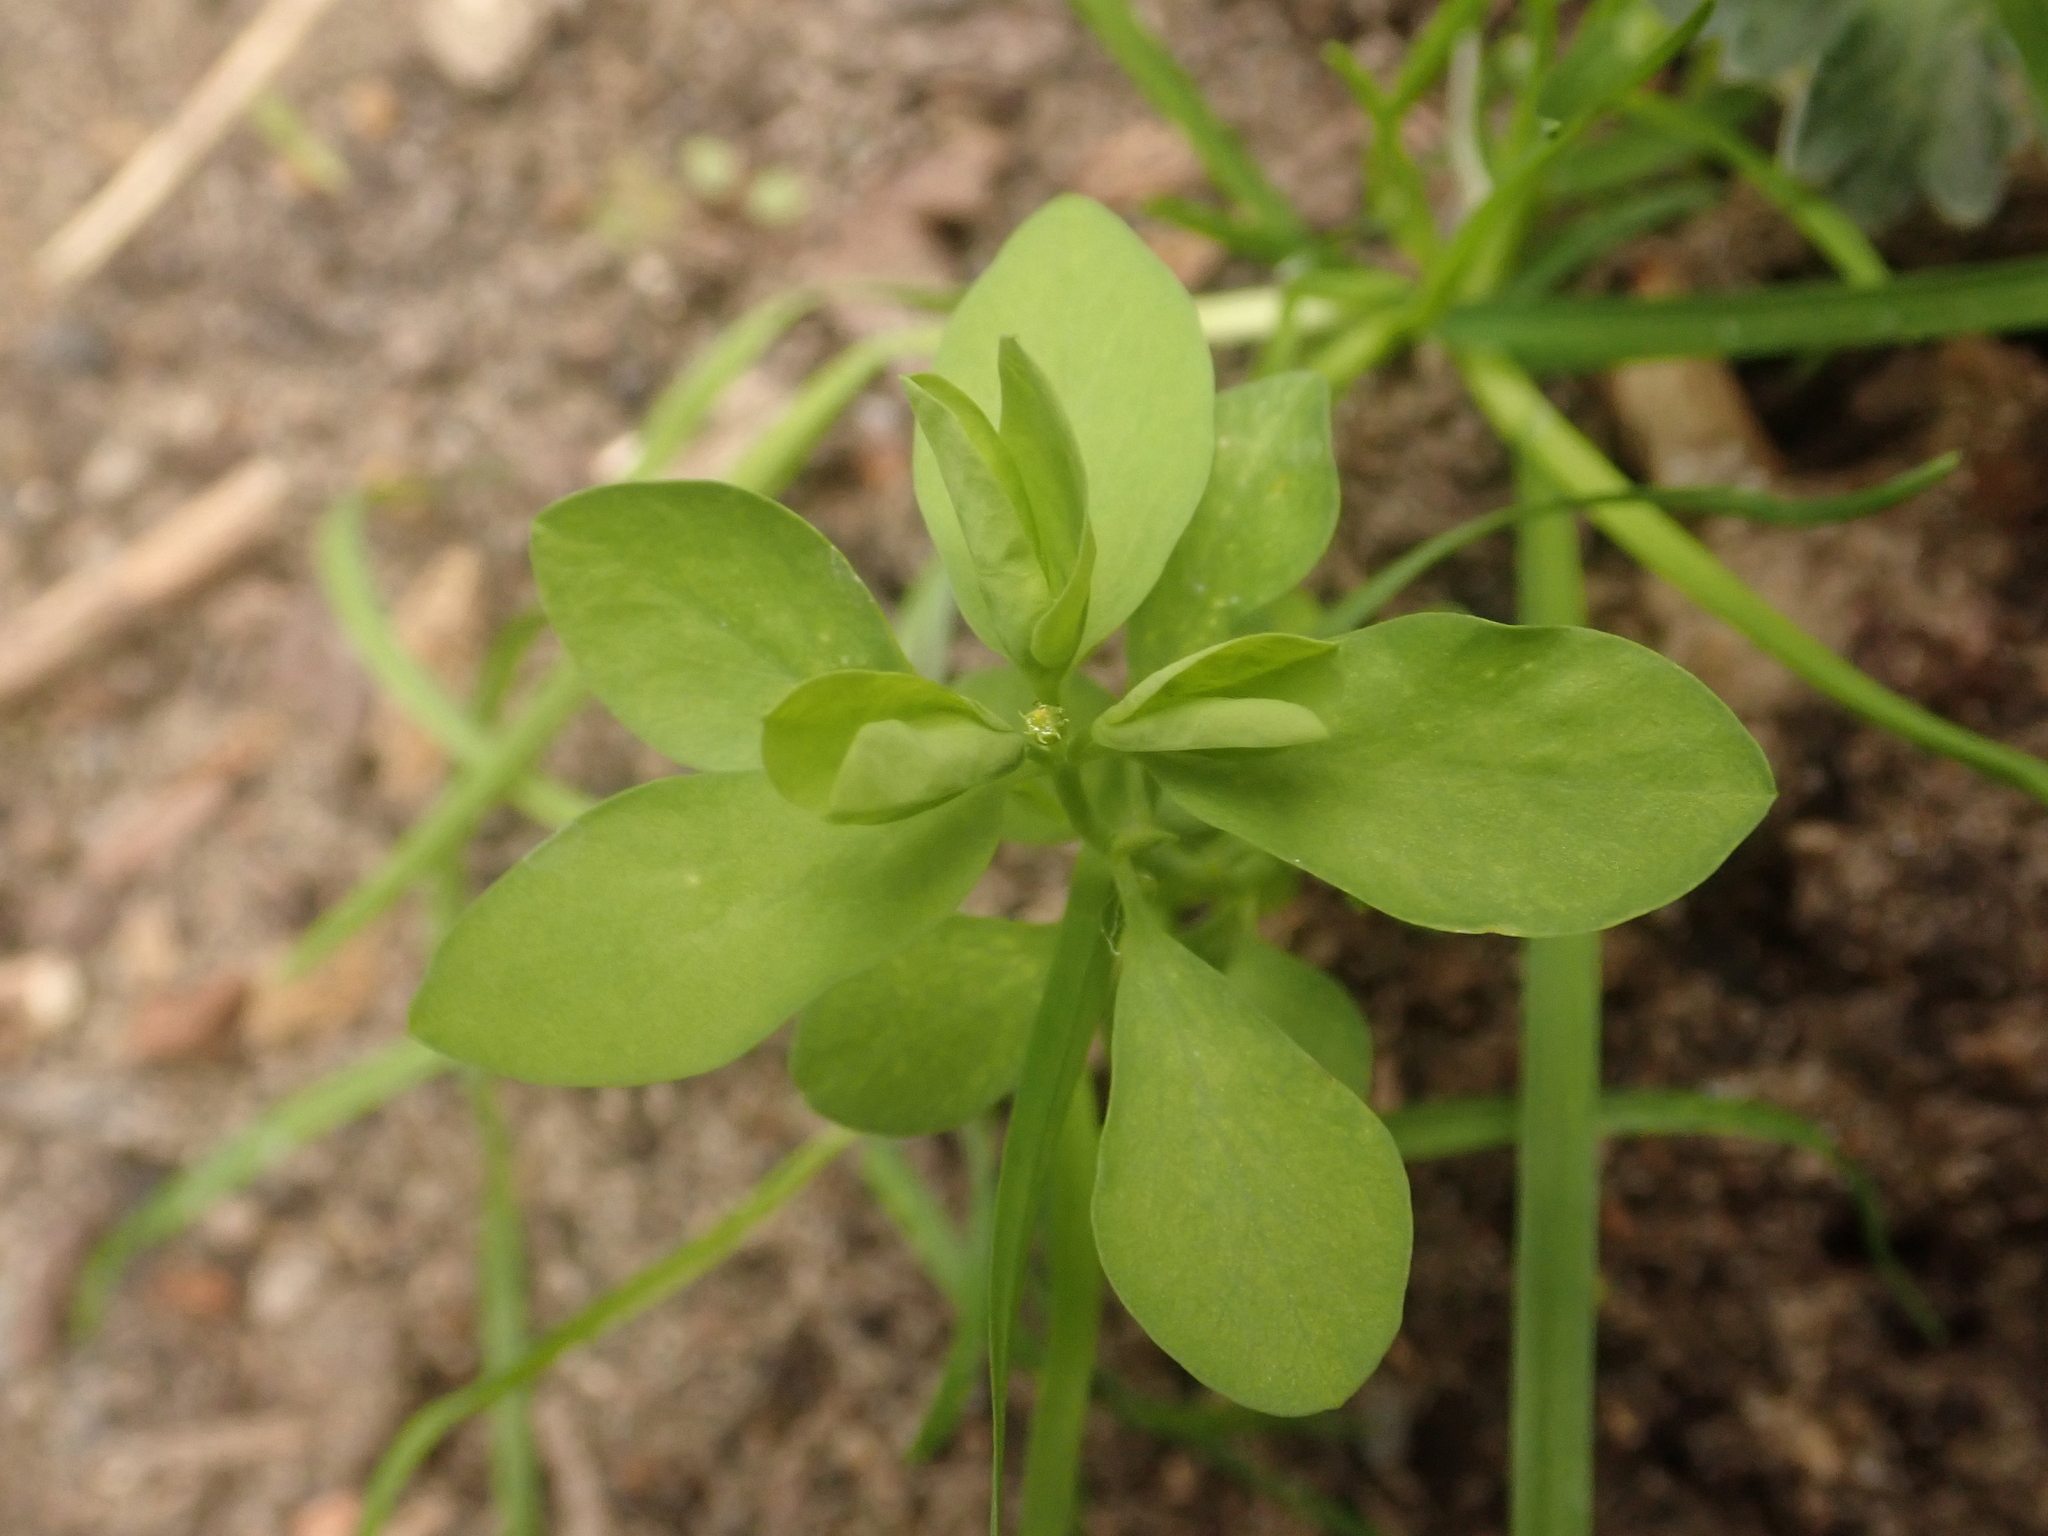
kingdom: Plantae
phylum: Tracheophyta
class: Magnoliopsida
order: Malpighiales
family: Euphorbiaceae
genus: Euphorbia
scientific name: Euphorbia peplus
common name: Petty spurge
